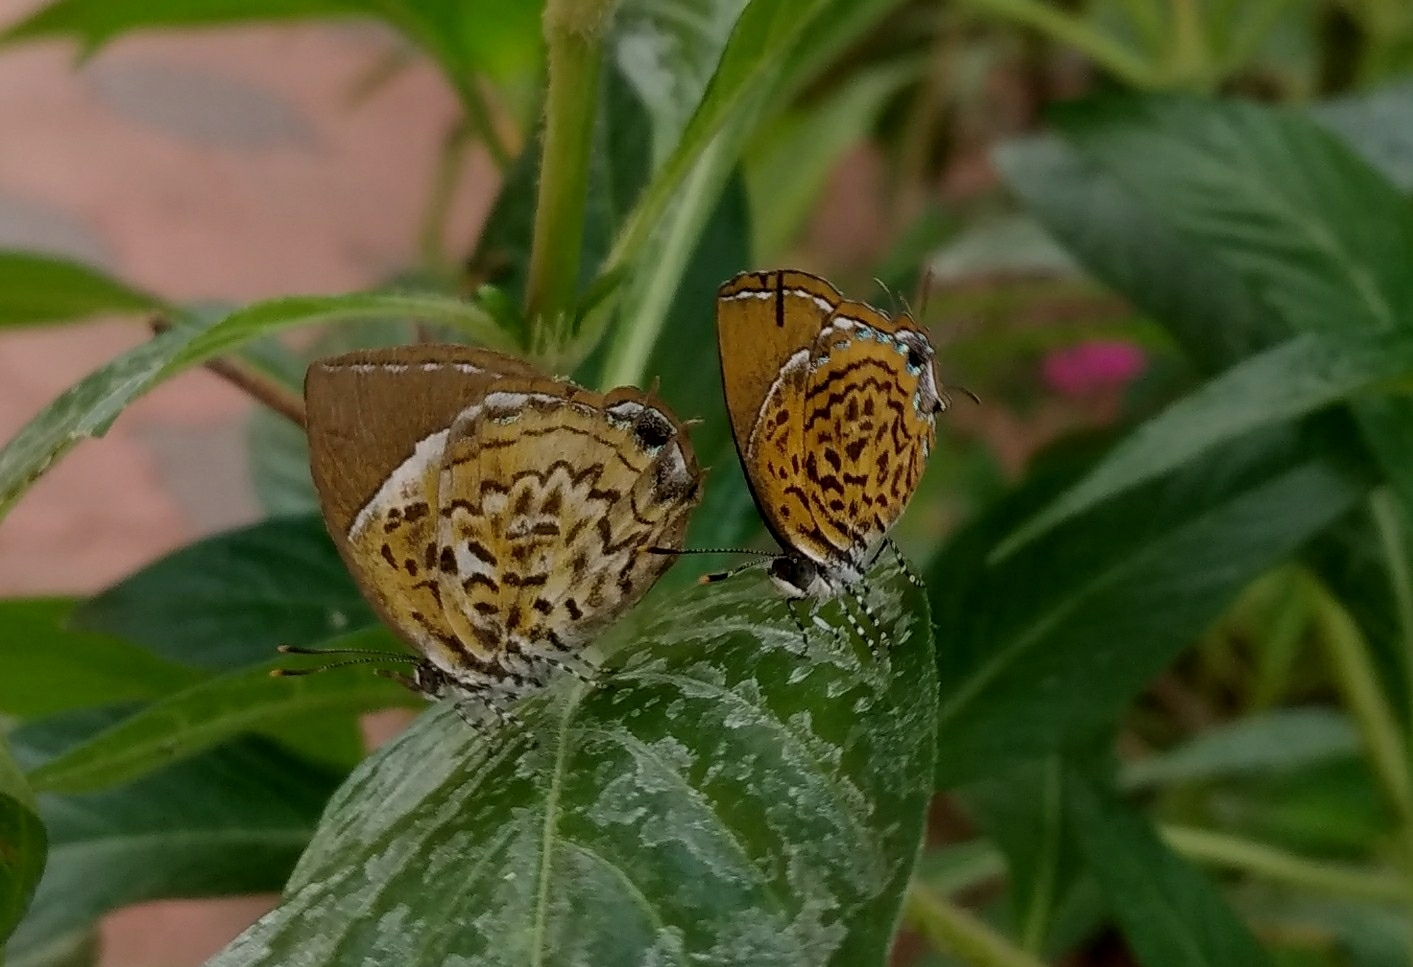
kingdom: Animalia
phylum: Arthropoda
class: Insecta
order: Lepidoptera
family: Lycaenidae
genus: Rathinda
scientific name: Rathinda amor
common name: Monkey puzzle
